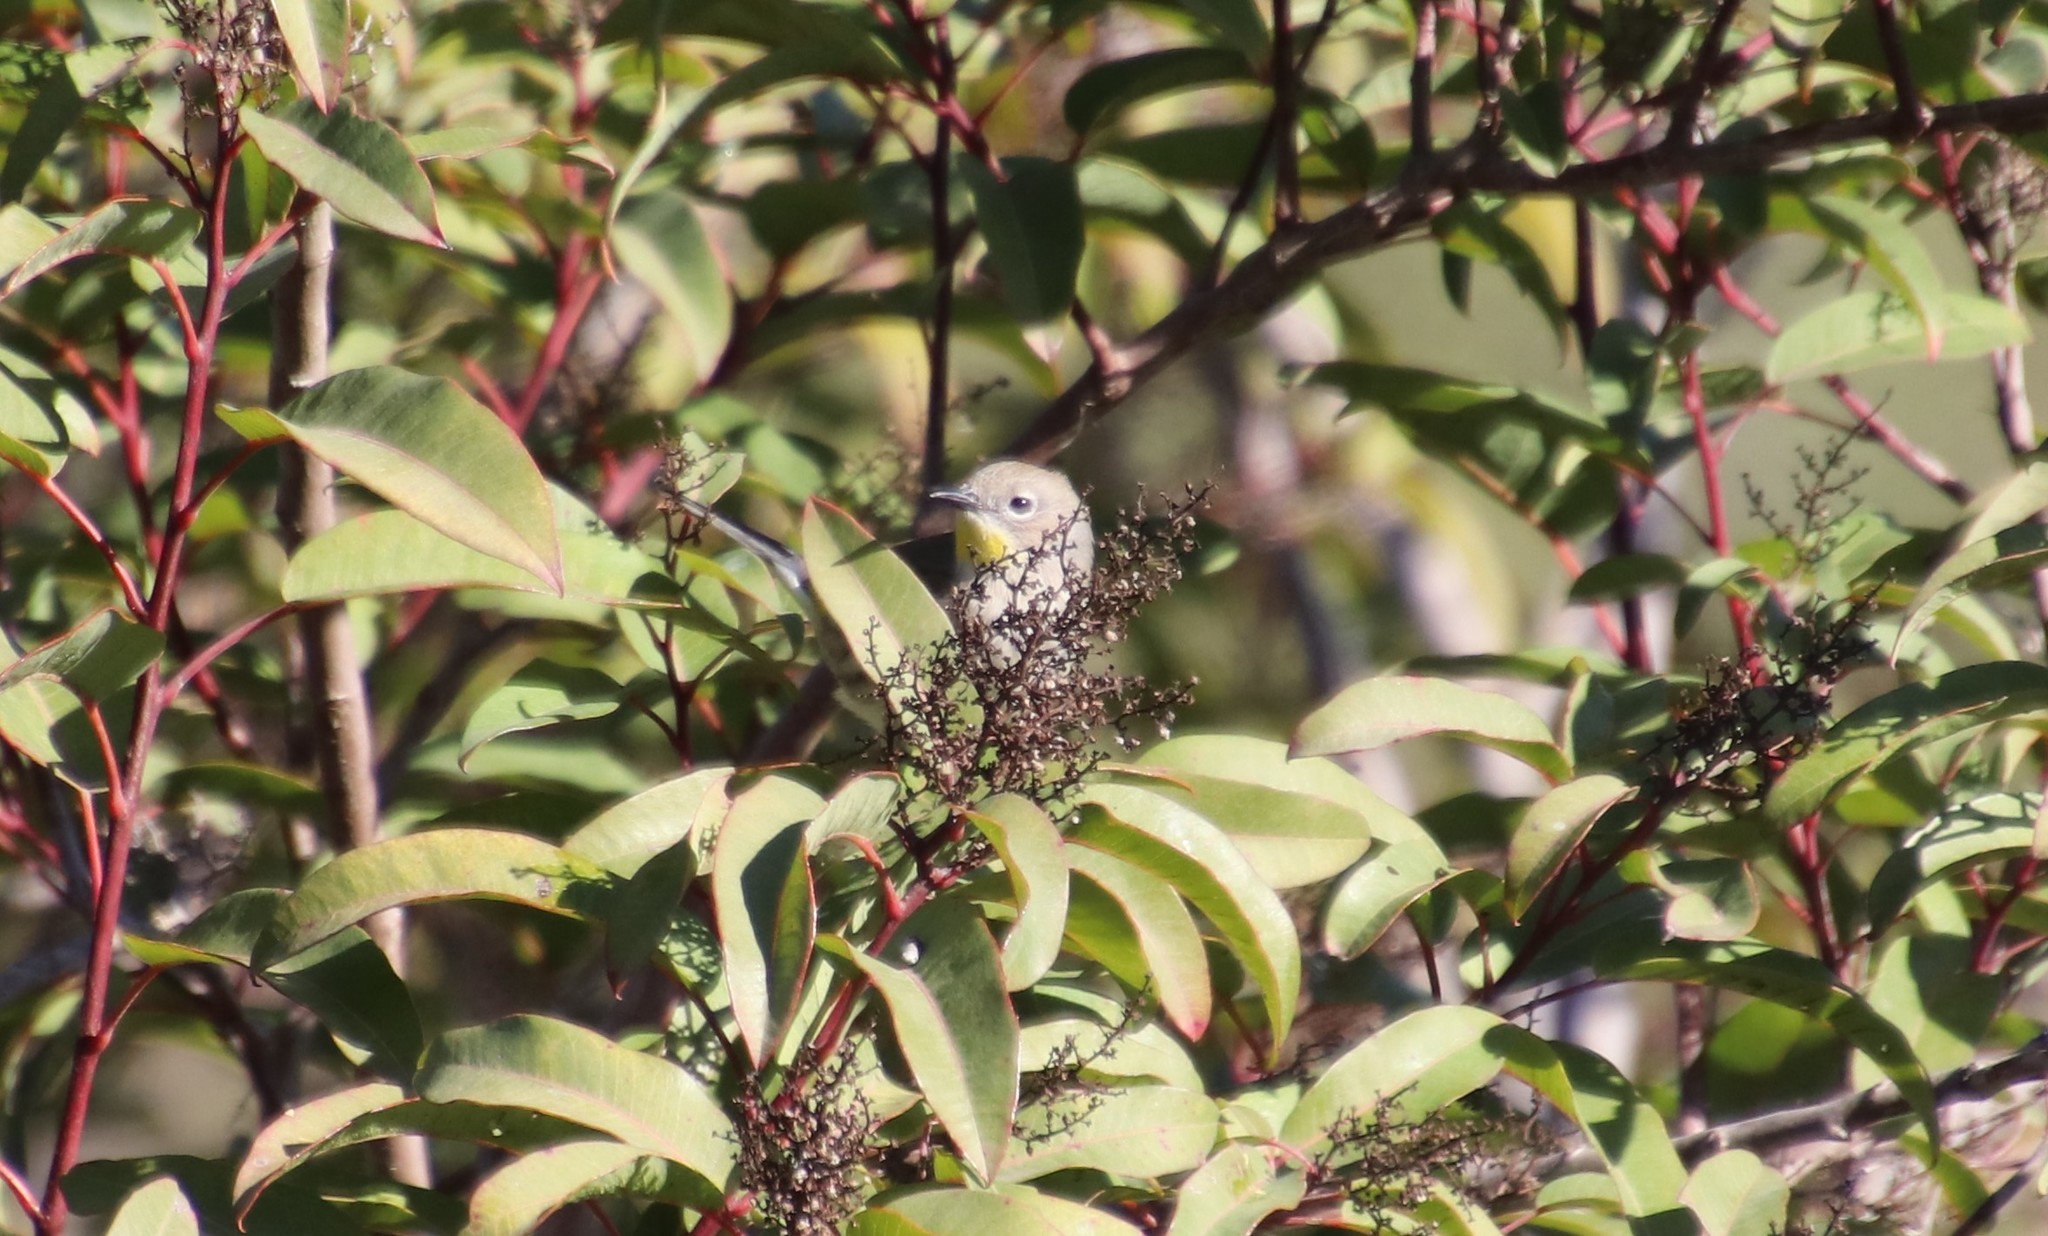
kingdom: Animalia
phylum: Chordata
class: Aves
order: Passeriformes
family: Parulidae
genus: Setophaga
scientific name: Setophaga auduboni
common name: Audubon's warbler
